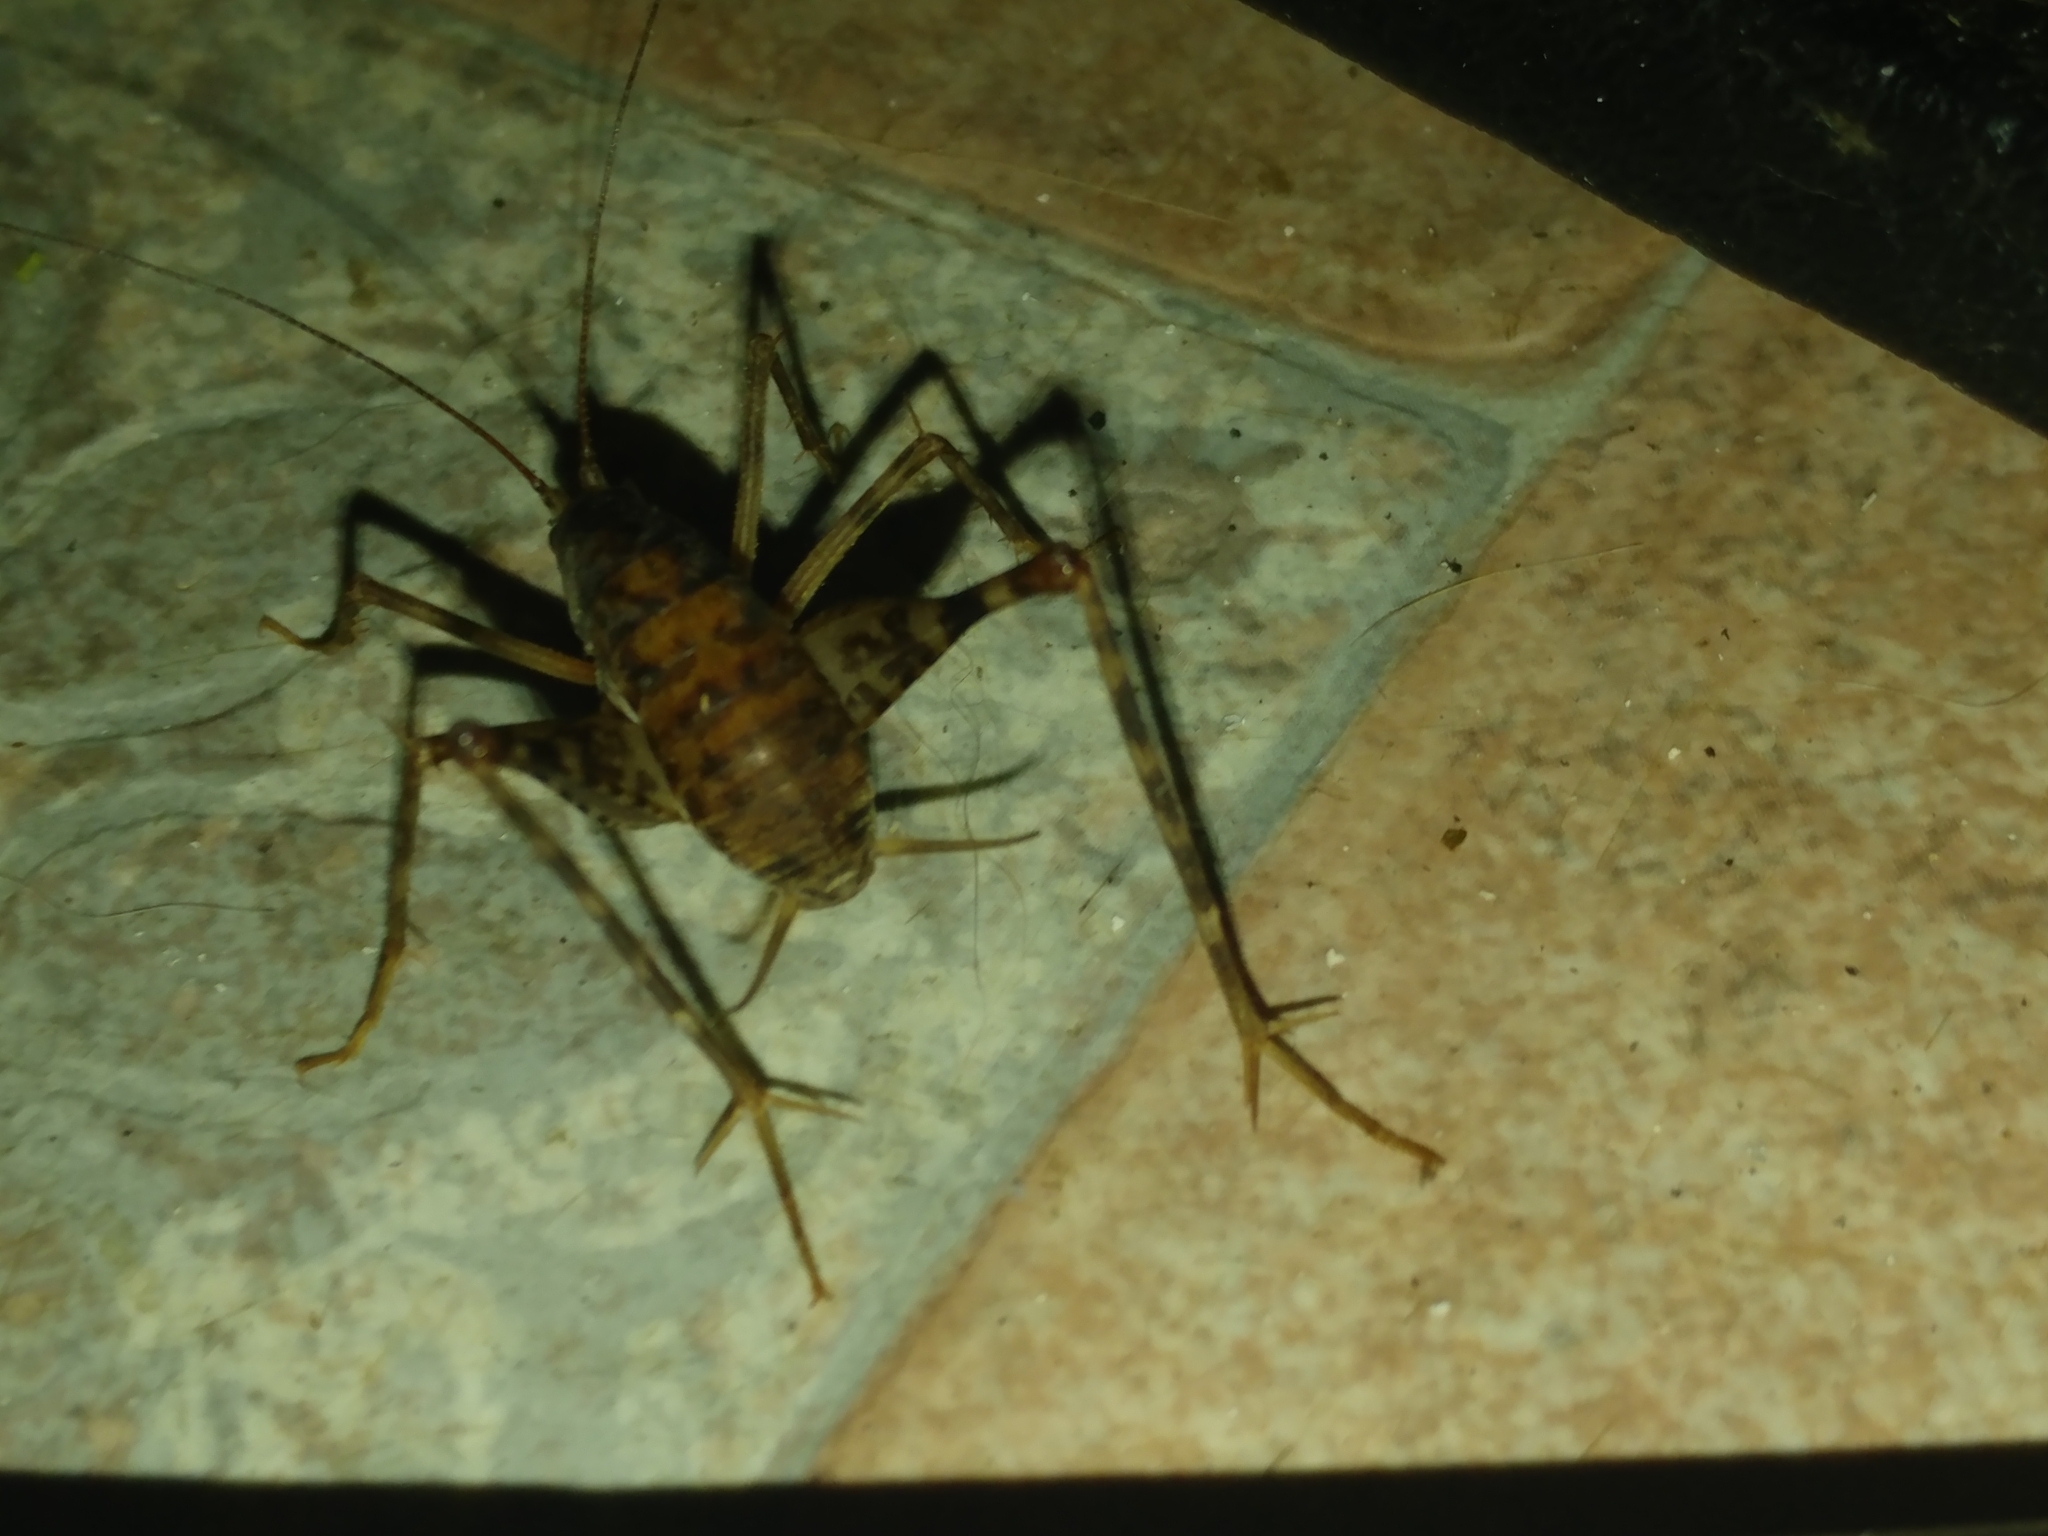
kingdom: Animalia
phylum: Arthropoda
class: Insecta
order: Orthoptera
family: Rhaphidophoridae
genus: Tachycines
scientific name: Tachycines asynamorus
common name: Greenhouse camel cricket
